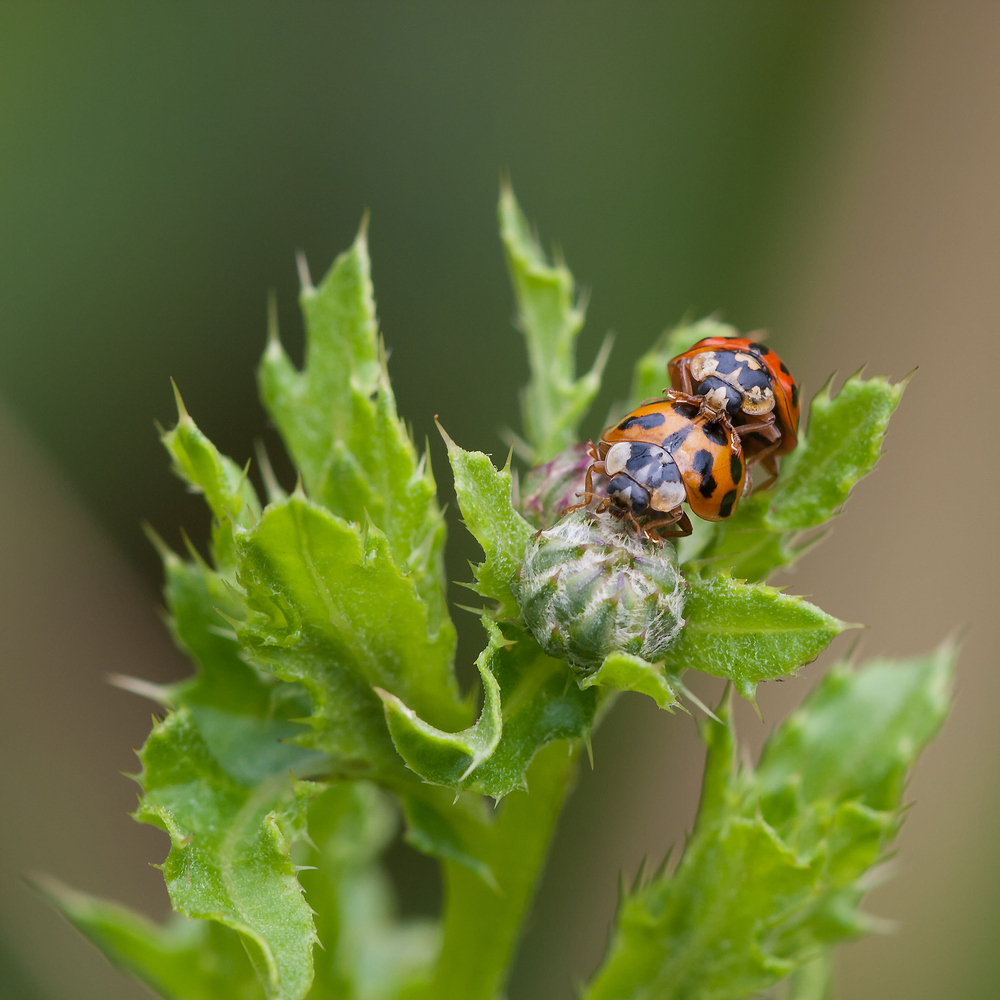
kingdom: Animalia
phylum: Arthropoda
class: Insecta
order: Coleoptera
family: Coccinellidae
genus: Harmonia
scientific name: Harmonia axyridis
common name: Harlequin ladybird
